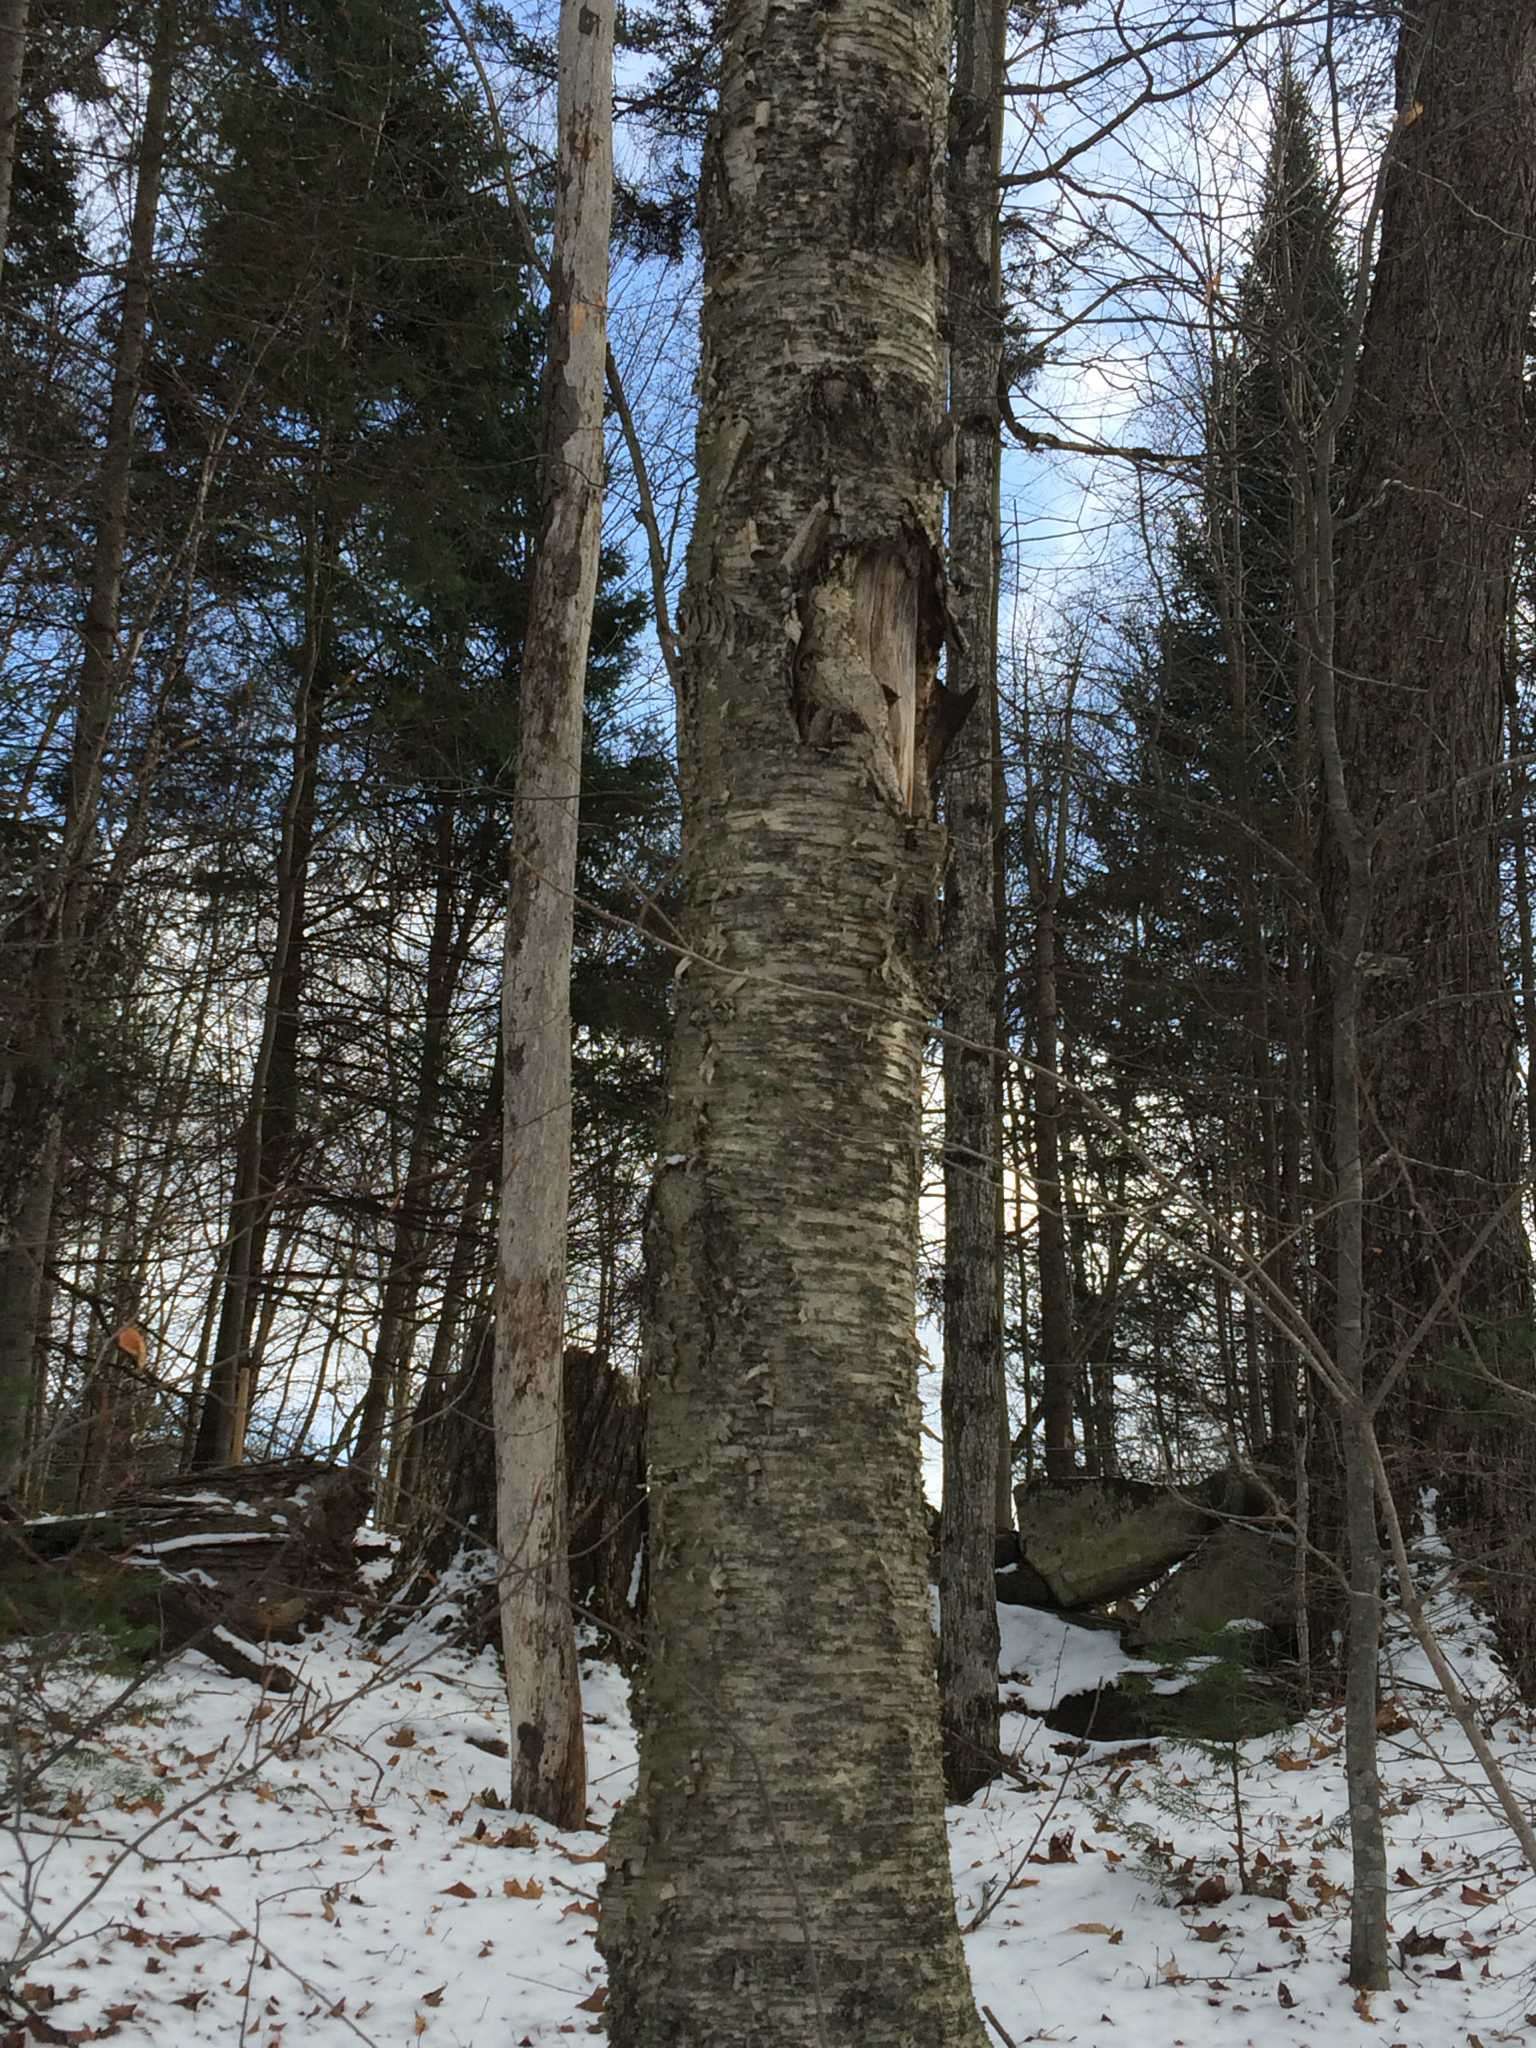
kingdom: Plantae
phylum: Tracheophyta
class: Magnoliopsida
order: Fagales
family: Betulaceae
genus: Betula
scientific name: Betula alleghaniensis
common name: Yellow birch
